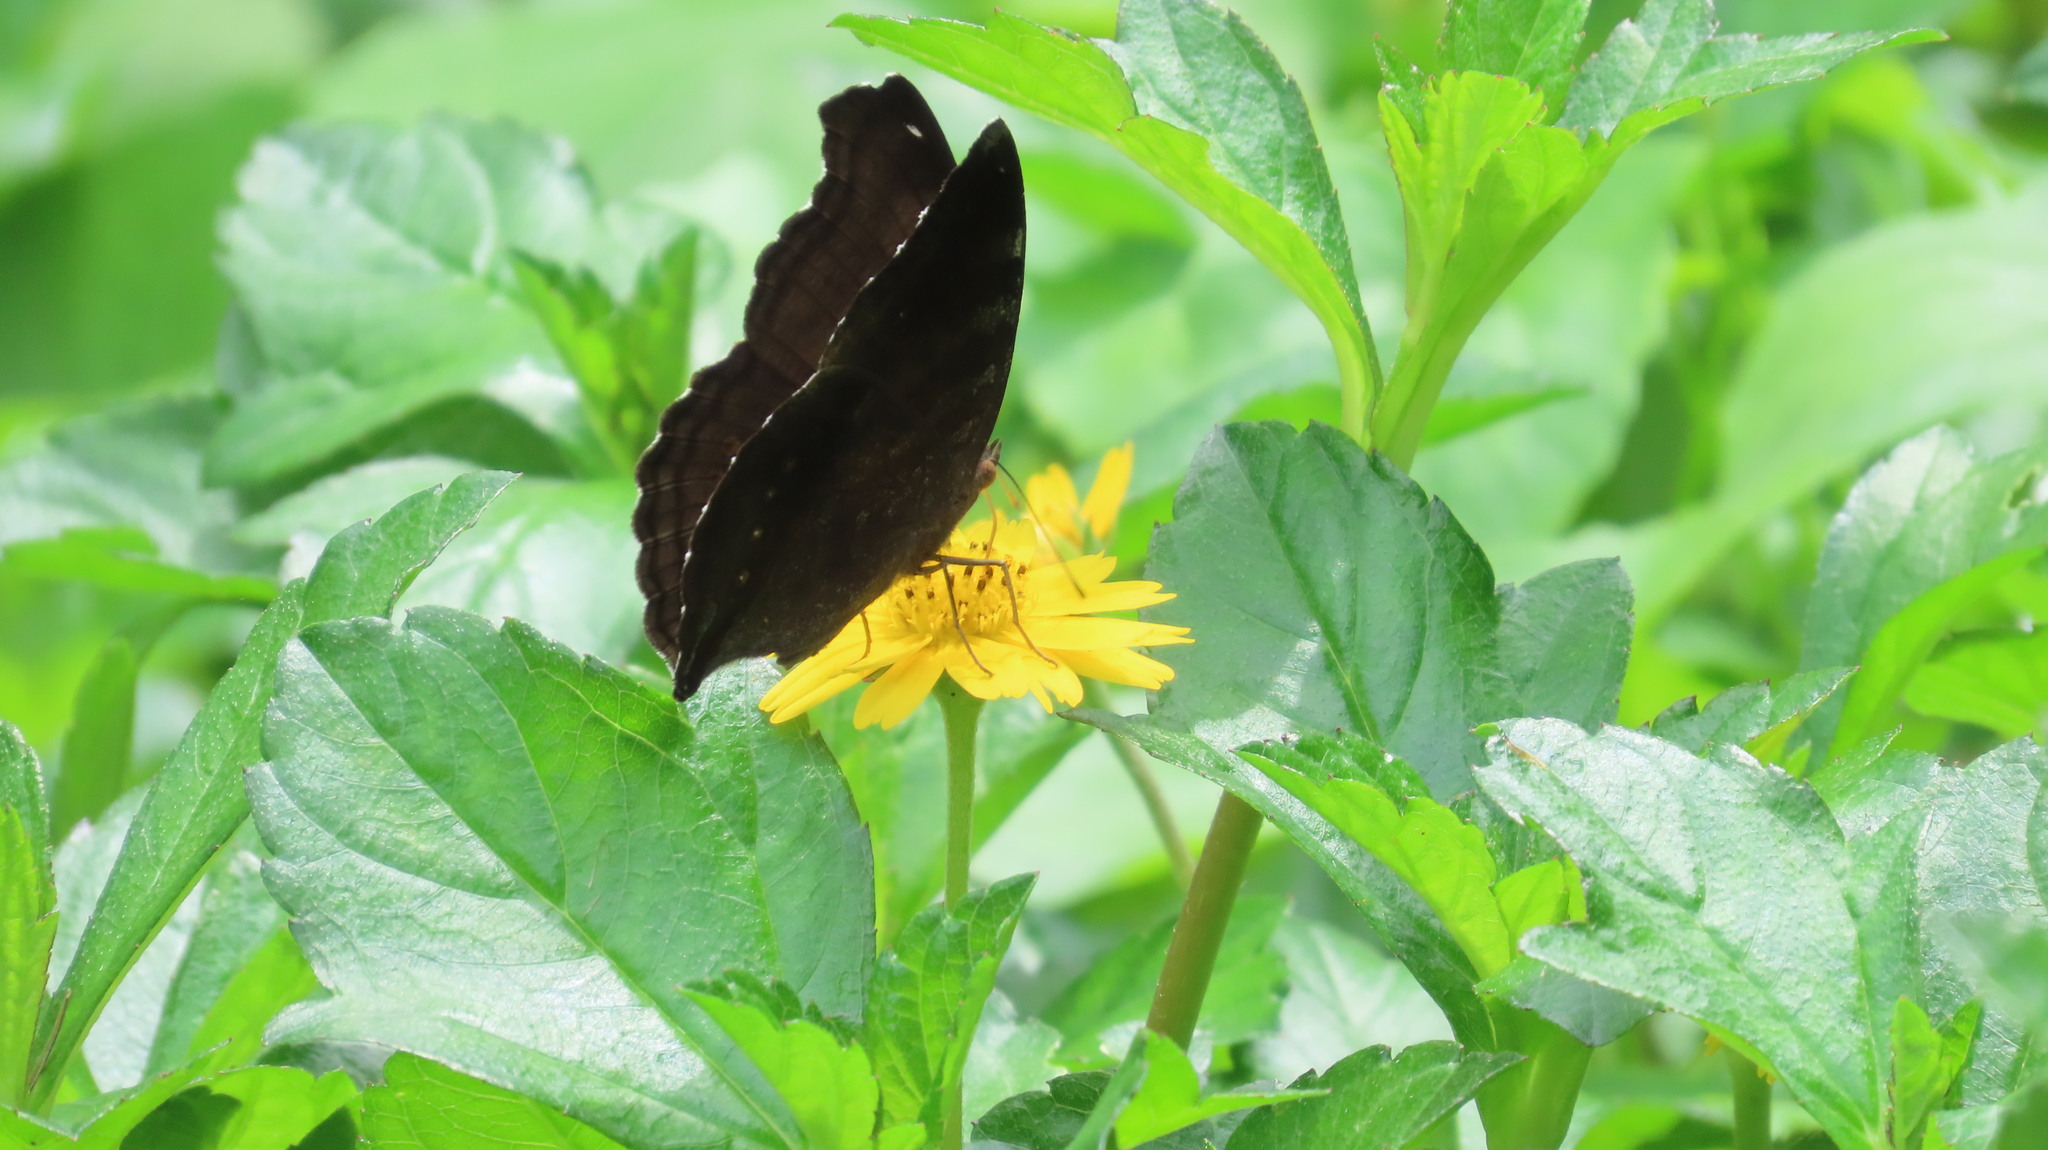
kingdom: Animalia
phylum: Arthropoda
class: Insecta
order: Lepidoptera
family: Nymphalidae
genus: Junonia
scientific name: Junonia iphita
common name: Chocolate pansy
